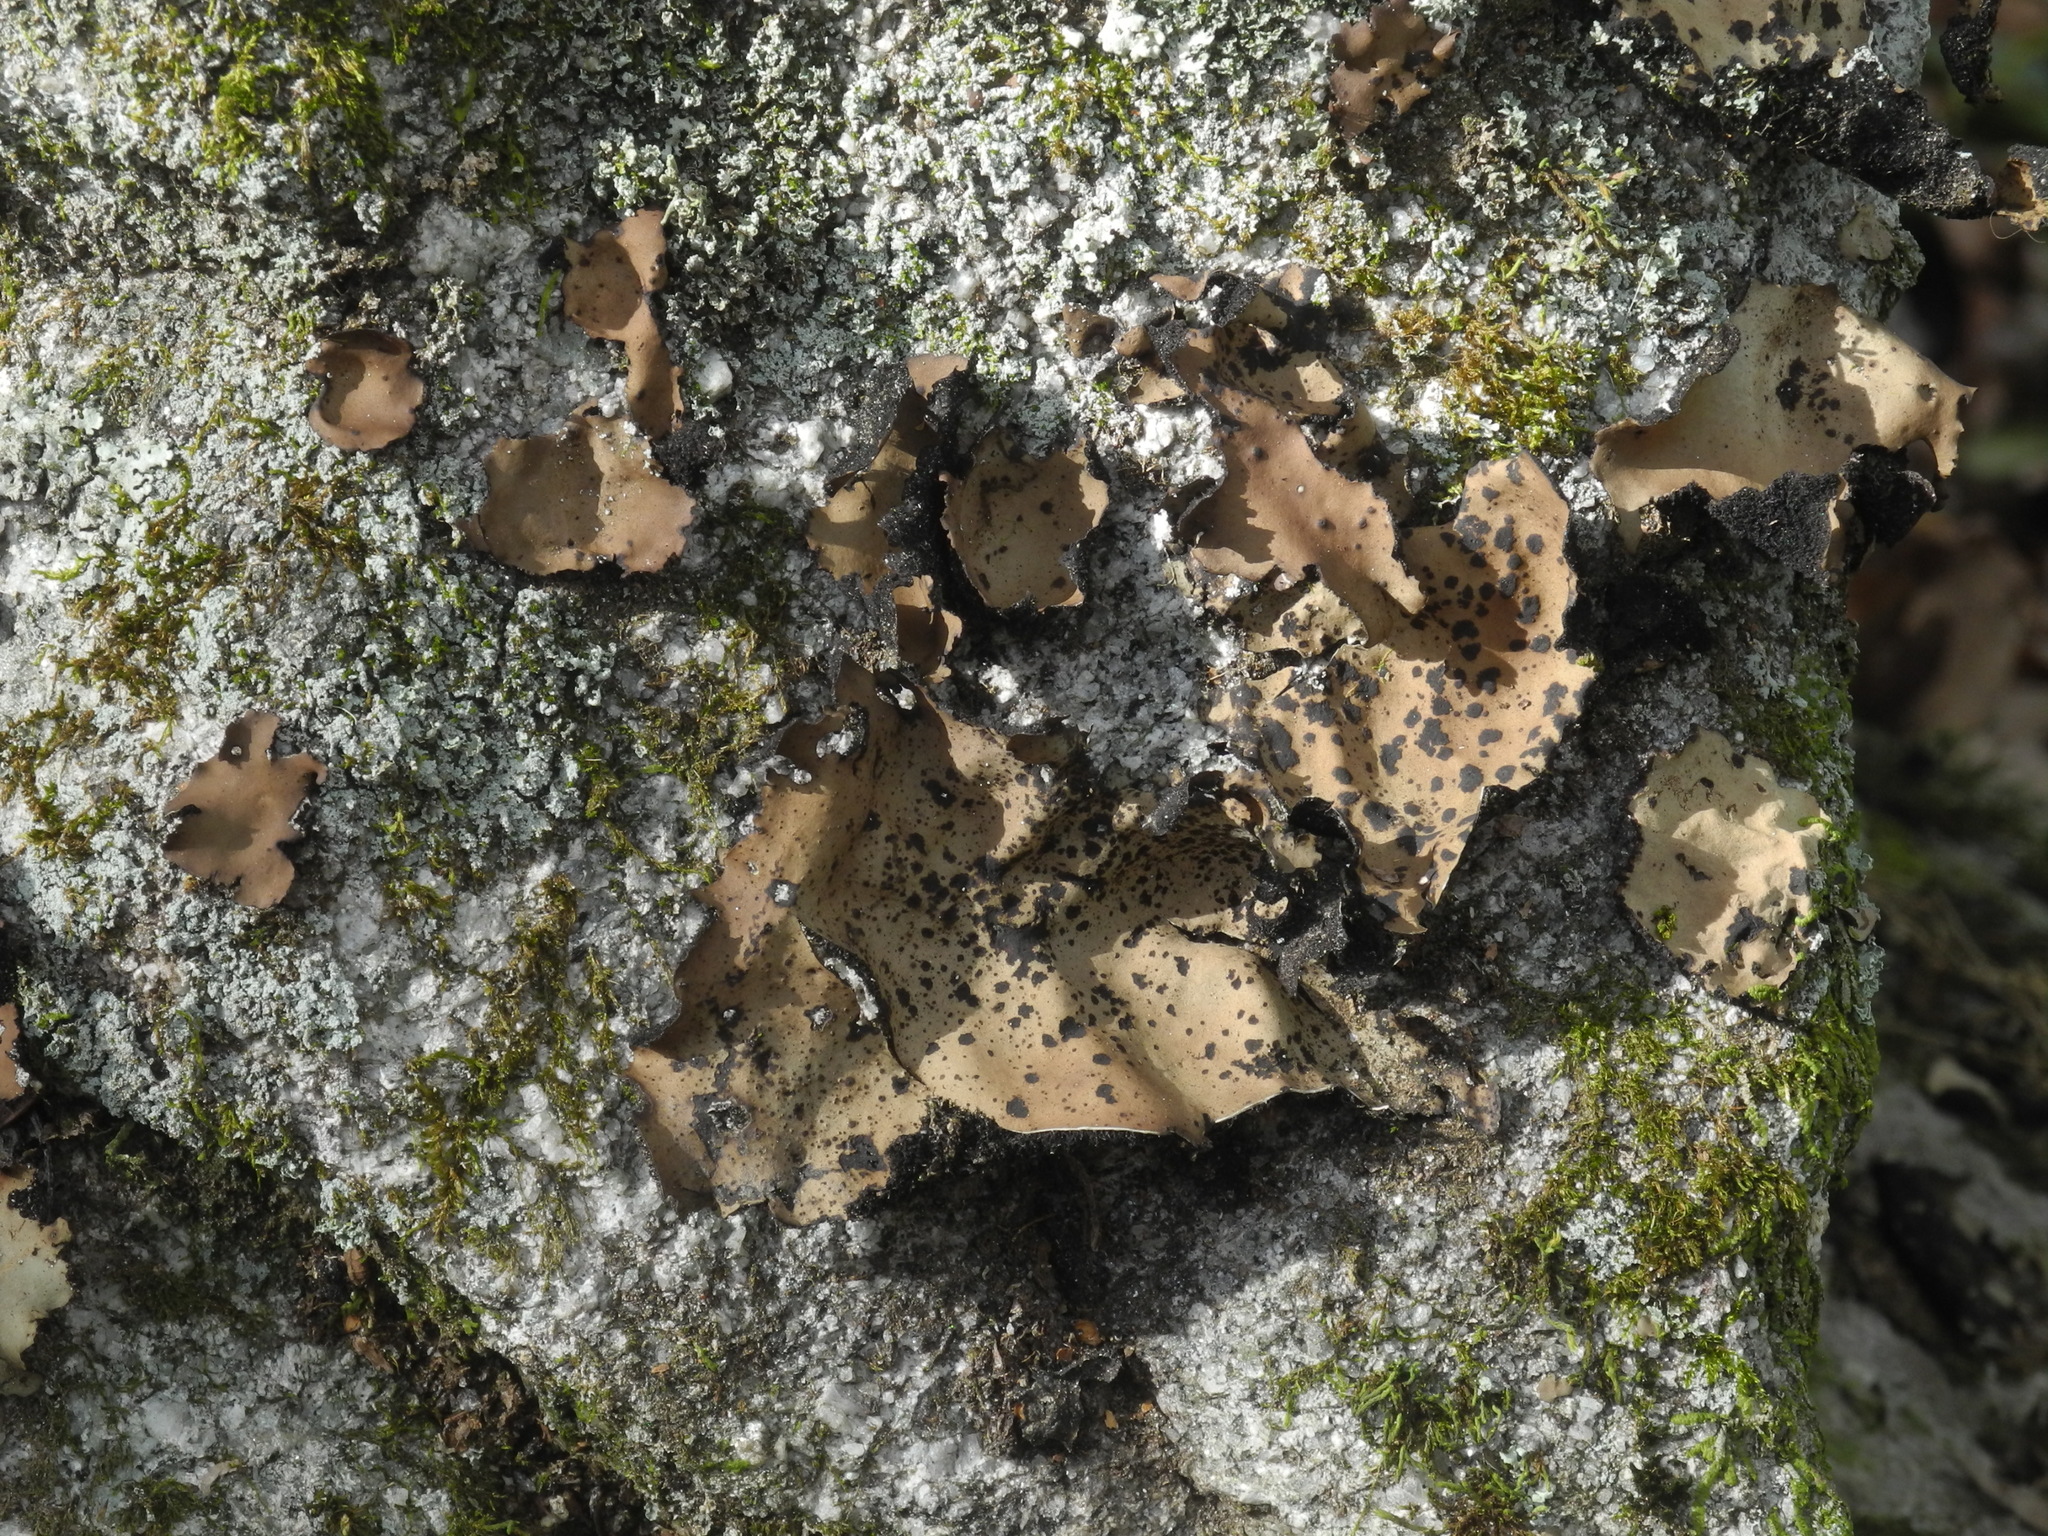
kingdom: Fungi
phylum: Ascomycota
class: Lecanoromycetes
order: Umbilicariales
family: Umbilicariaceae
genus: Umbilicaria
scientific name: Umbilicaria mammulata
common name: Smooth rock tripe
